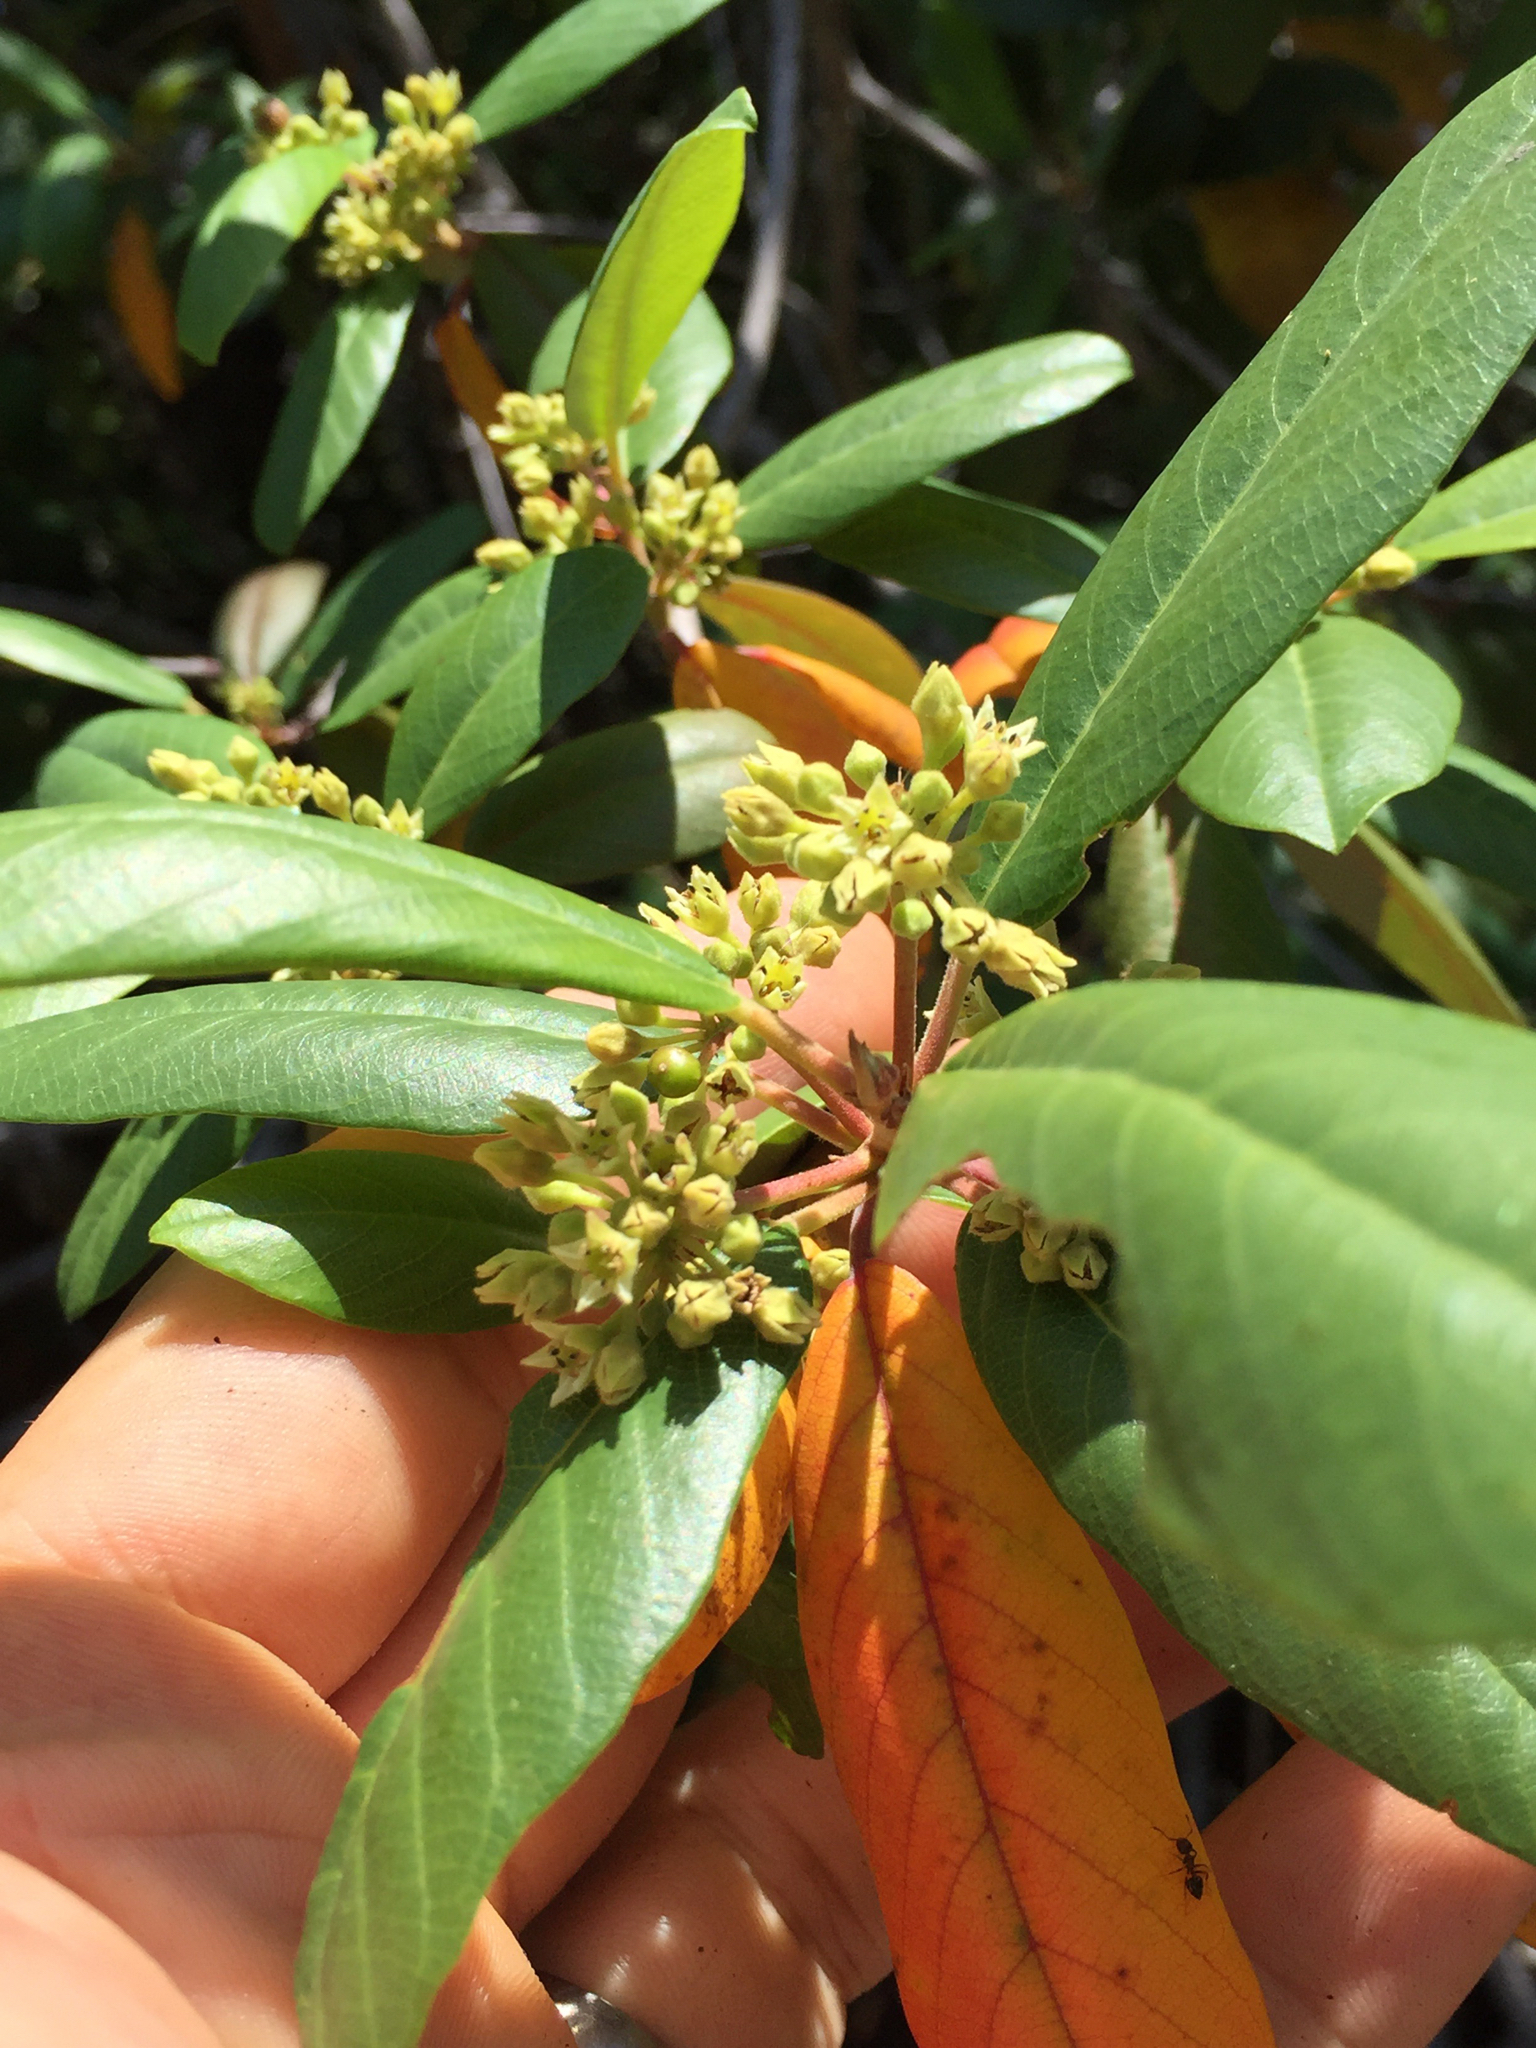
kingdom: Plantae
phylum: Tracheophyta
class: Magnoliopsida
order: Rosales
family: Rhamnaceae
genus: Frangula
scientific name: Frangula californica
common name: California buckthorn
